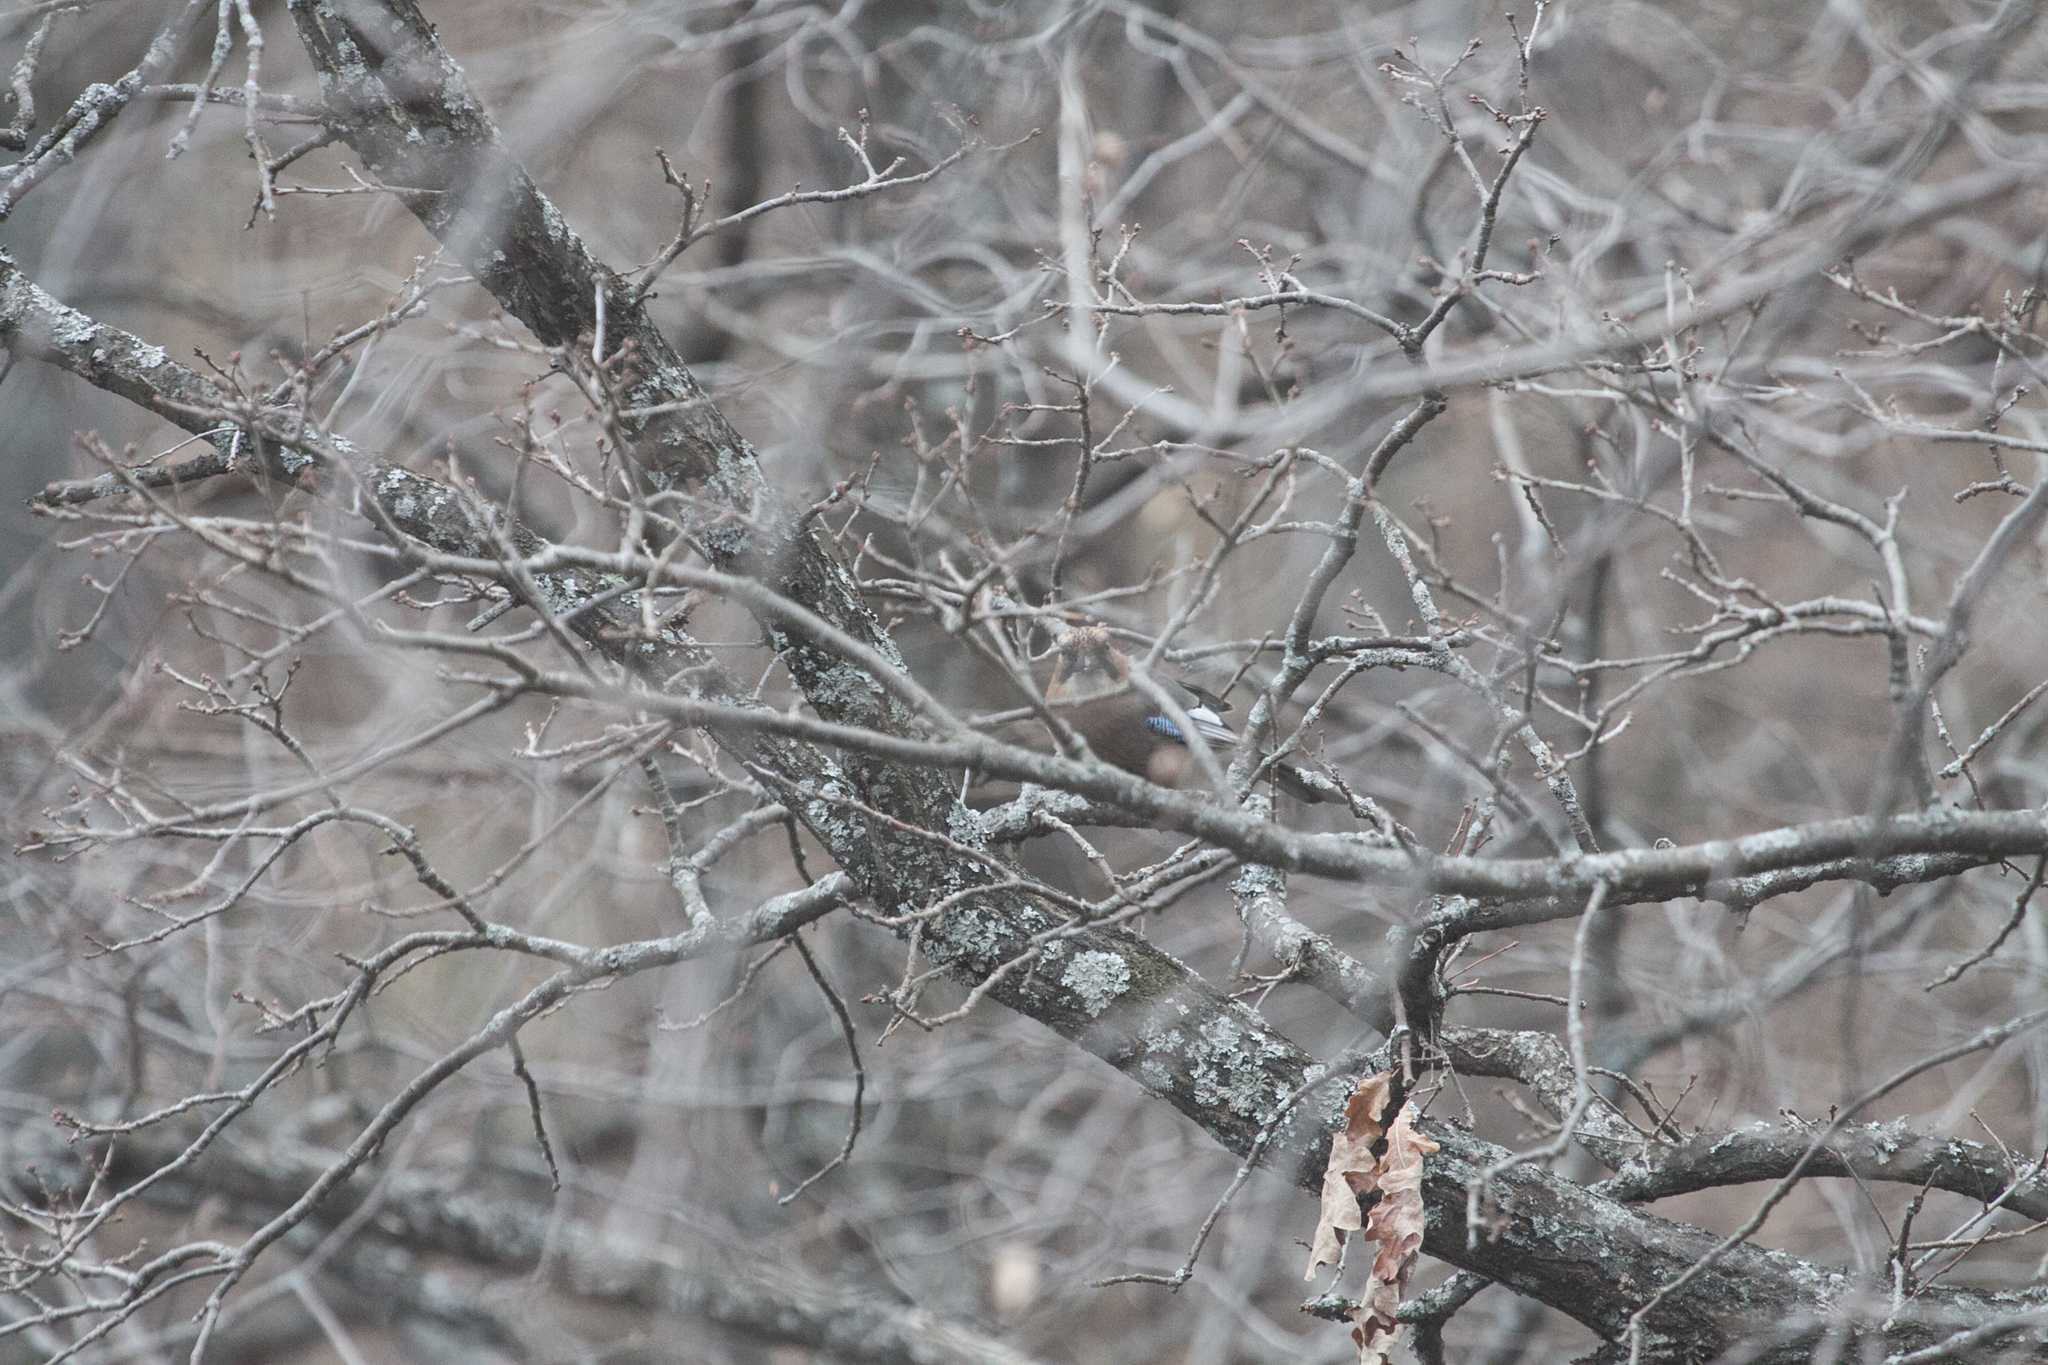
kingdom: Animalia
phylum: Chordata
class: Aves
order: Passeriformes
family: Corvidae
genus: Garrulus
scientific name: Garrulus glandarius
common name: Eurasian jay
